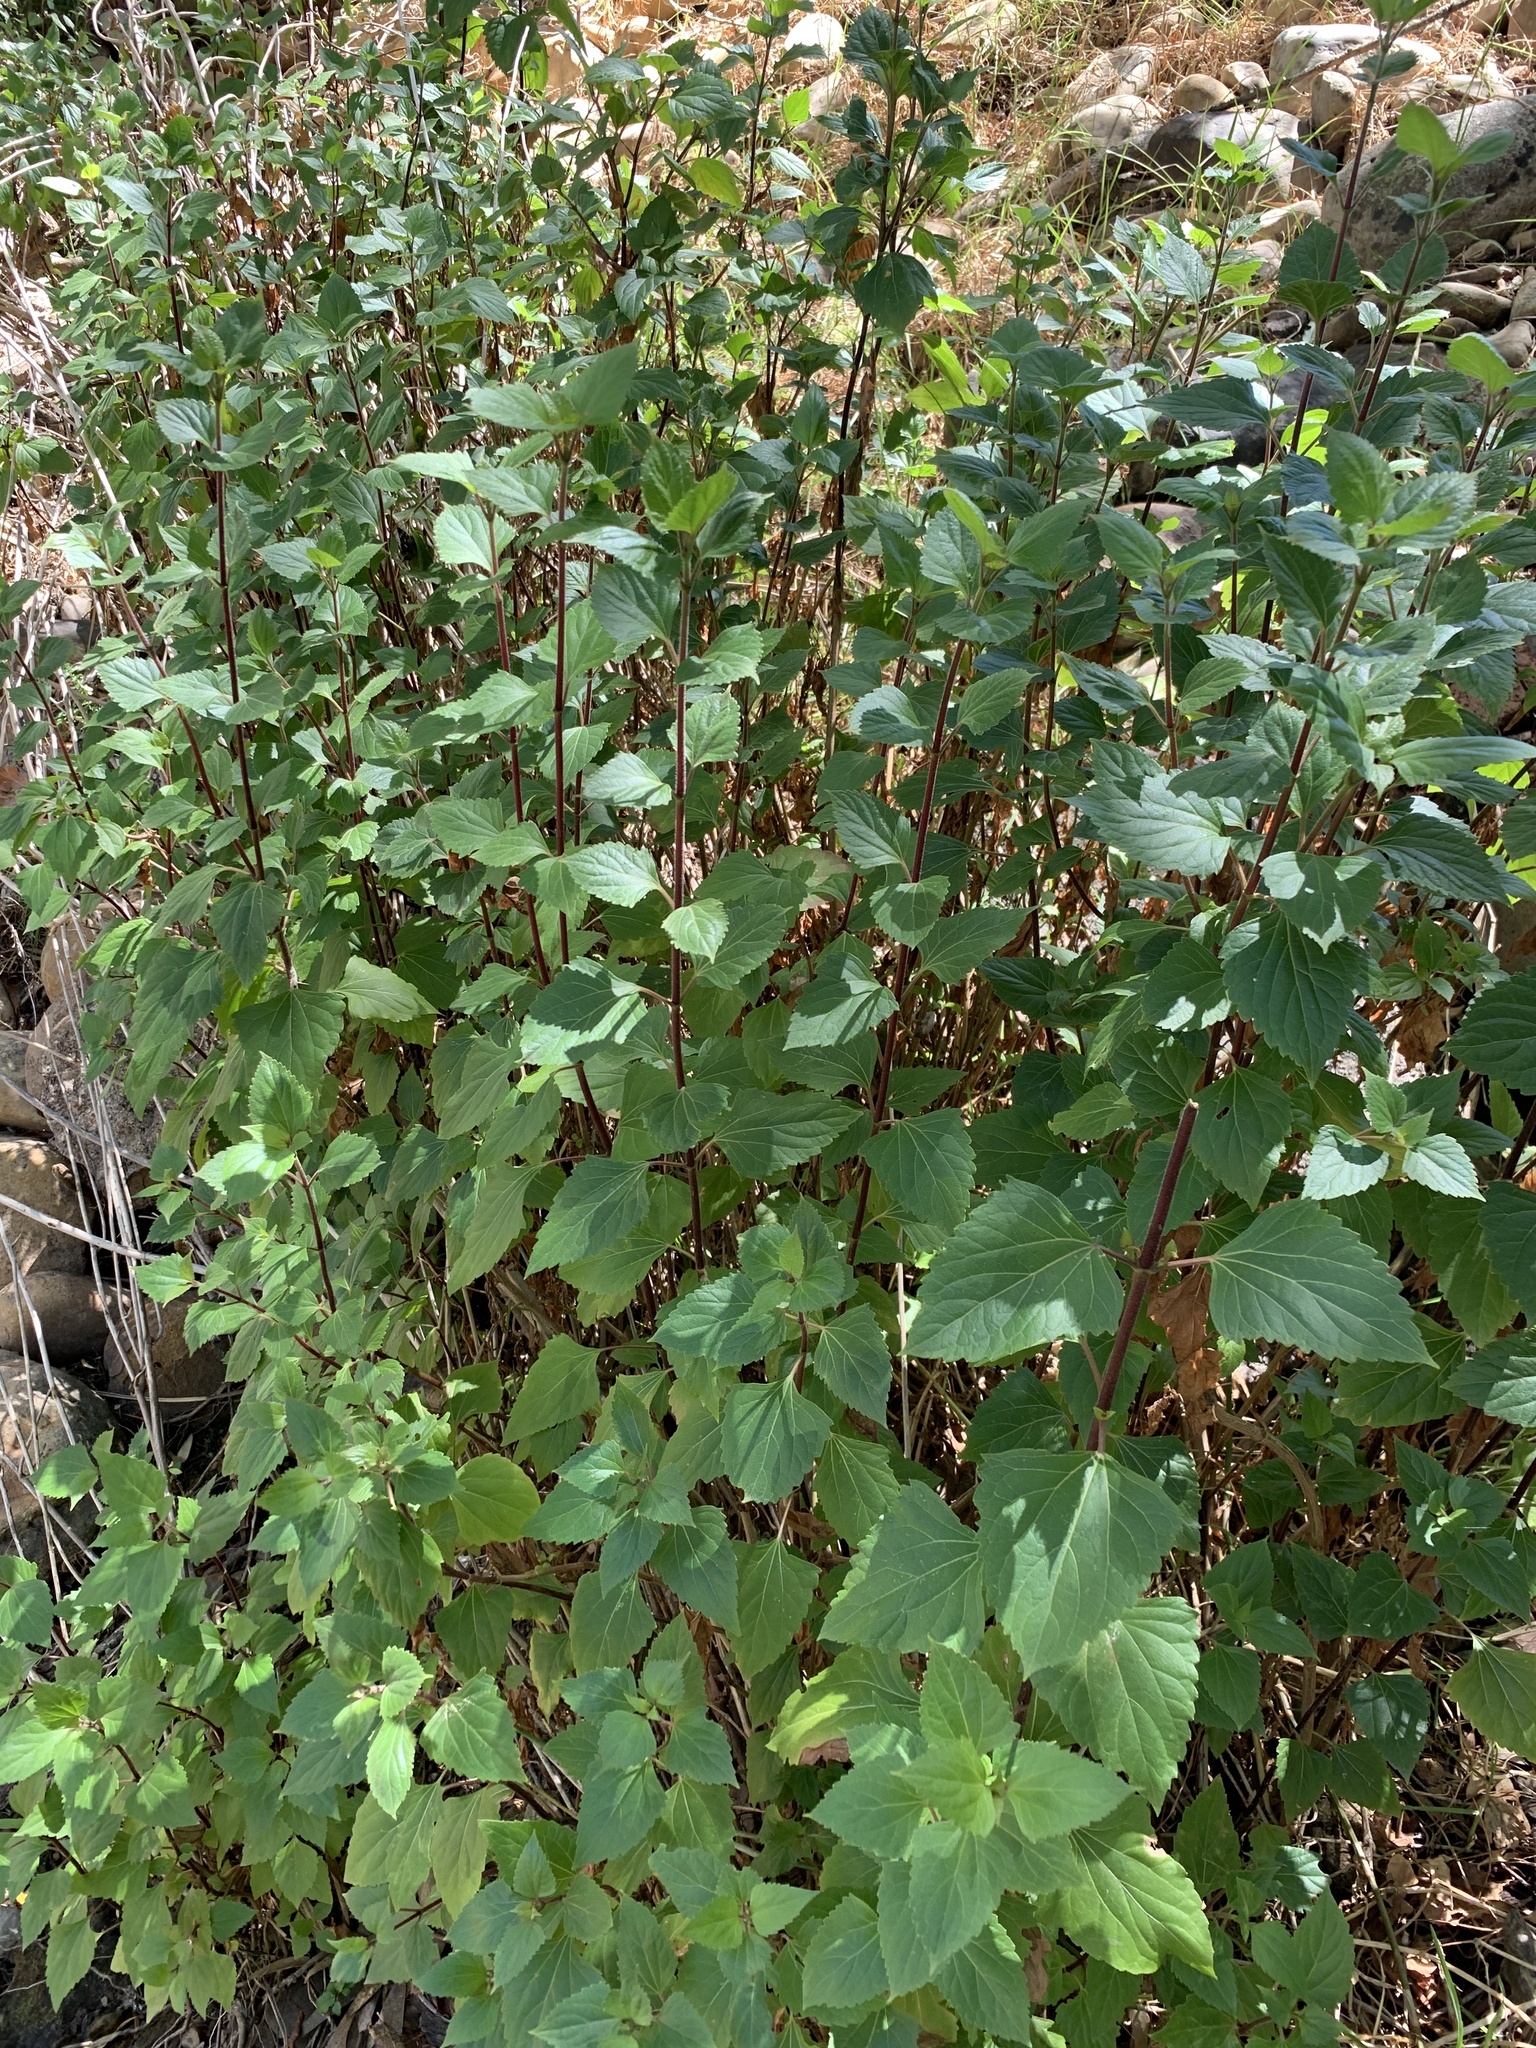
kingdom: Plantae
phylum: Tracheophyta
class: Magnoliopsida
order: Asterales
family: Asteraceae
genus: Ageratina
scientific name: Ageratina adenophora
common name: Sticky snakeroot
